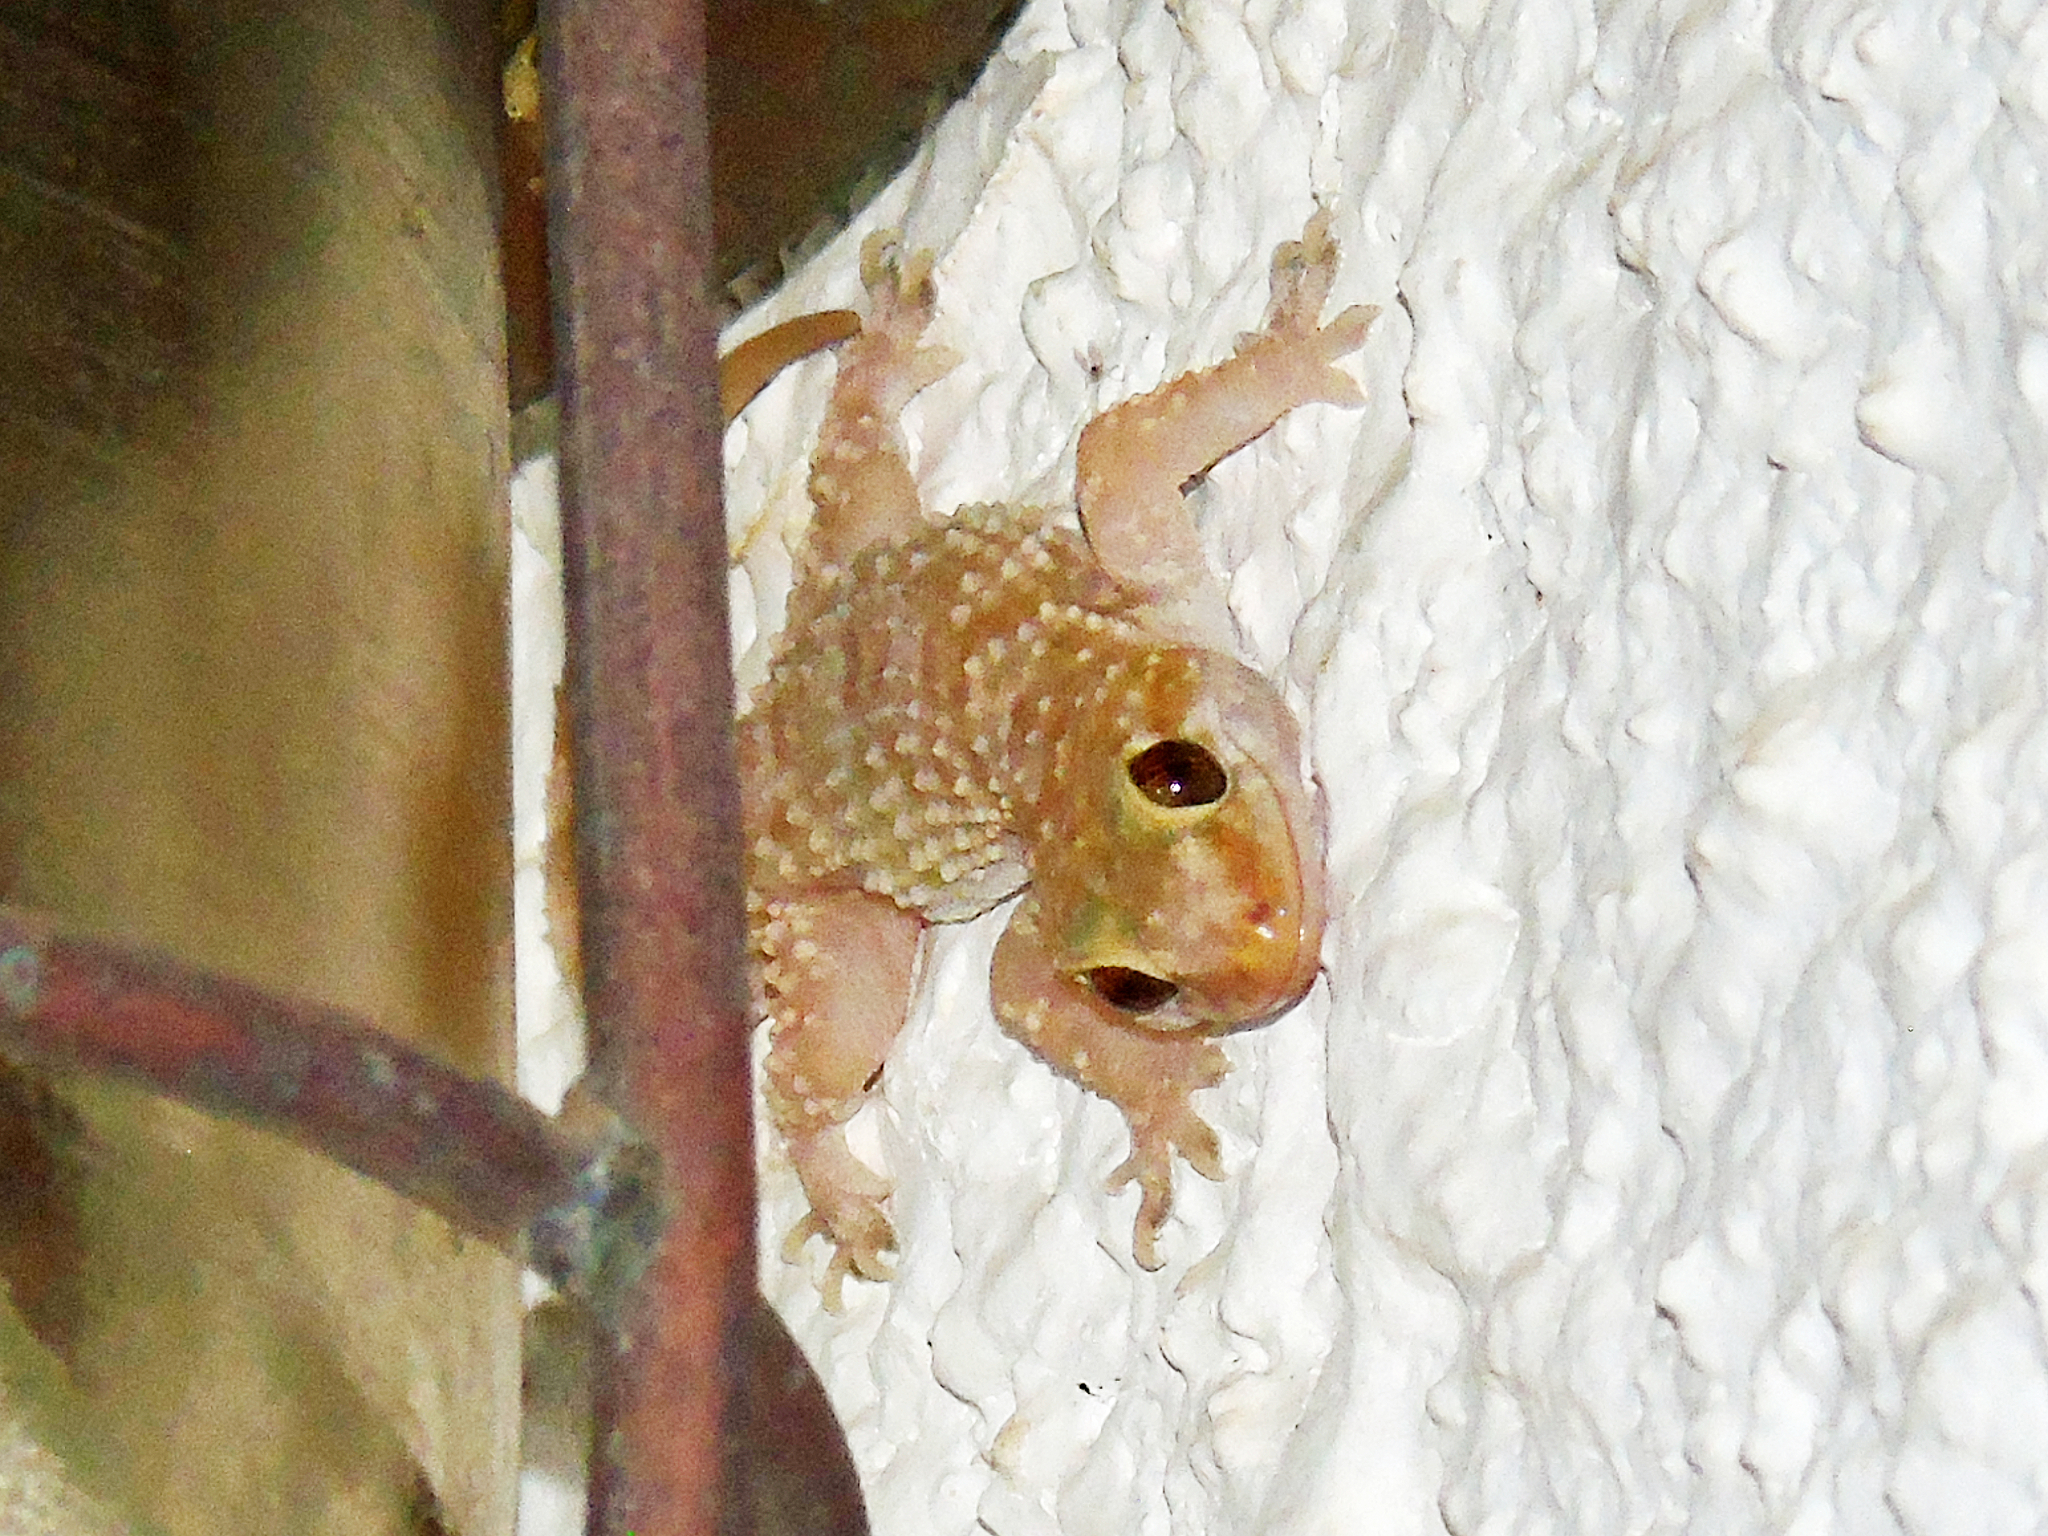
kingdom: Animalia
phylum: Chordata
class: Squamata
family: Gekkonidae
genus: Hemidactylus
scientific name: Hemidactylus turcicus
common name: Turkish gecko
